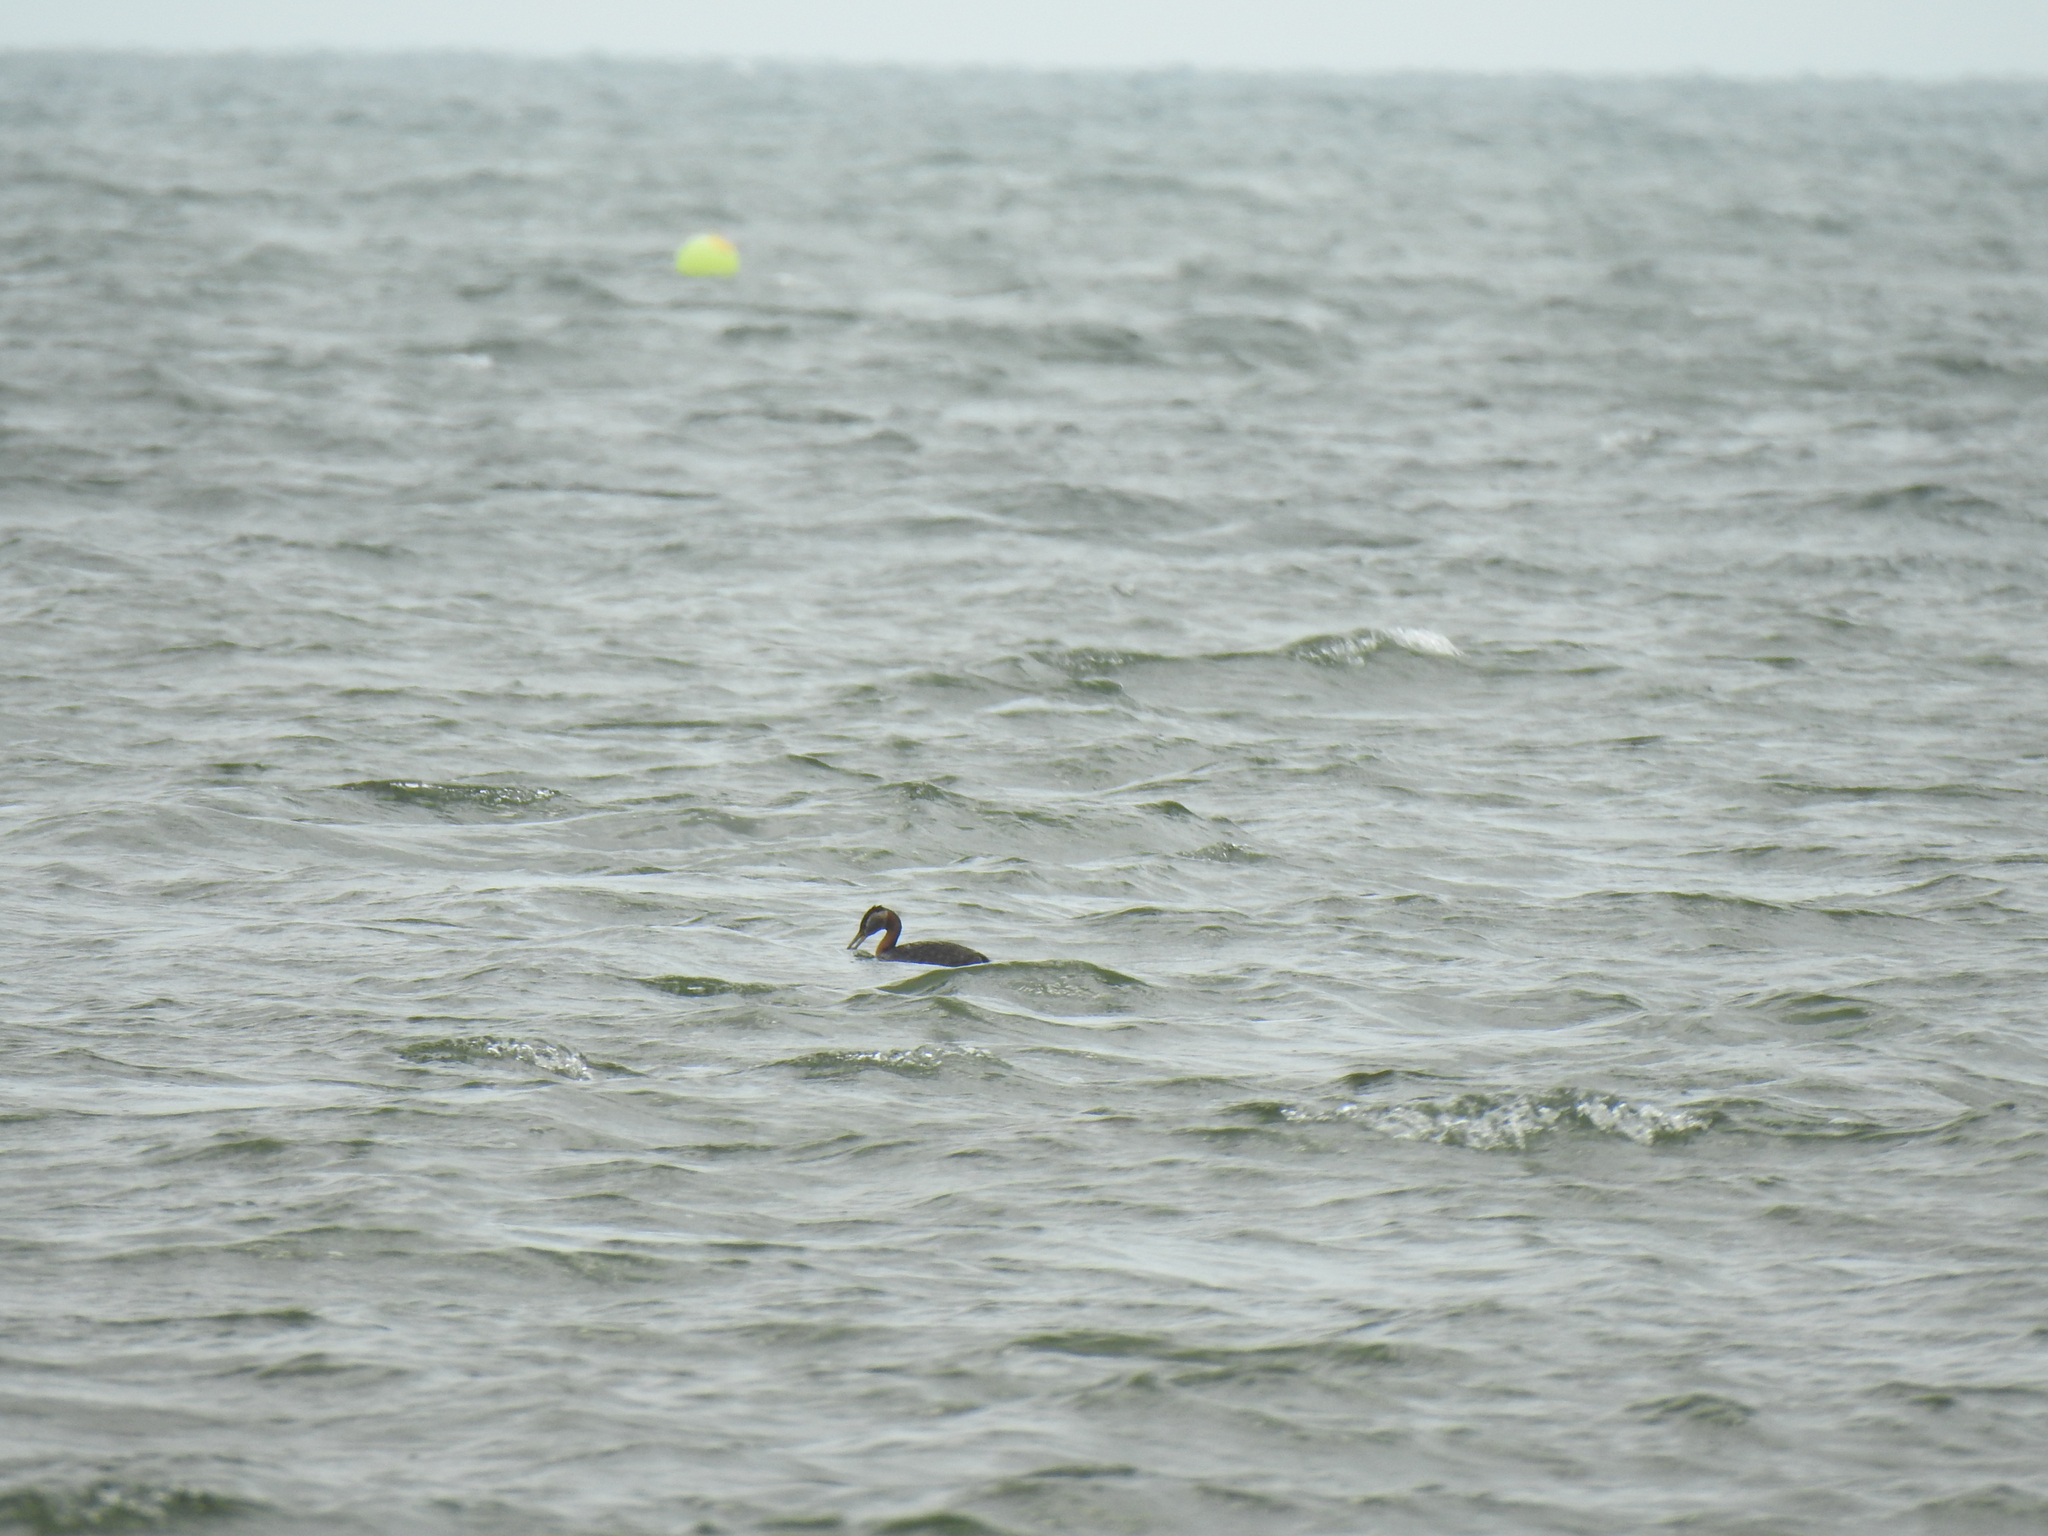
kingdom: Animalia
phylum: Chordata
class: Aves
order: Podicipediformes
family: Podicipedidae
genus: Podiceps
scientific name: Podiceps grisegena
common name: Red-necked grebe
